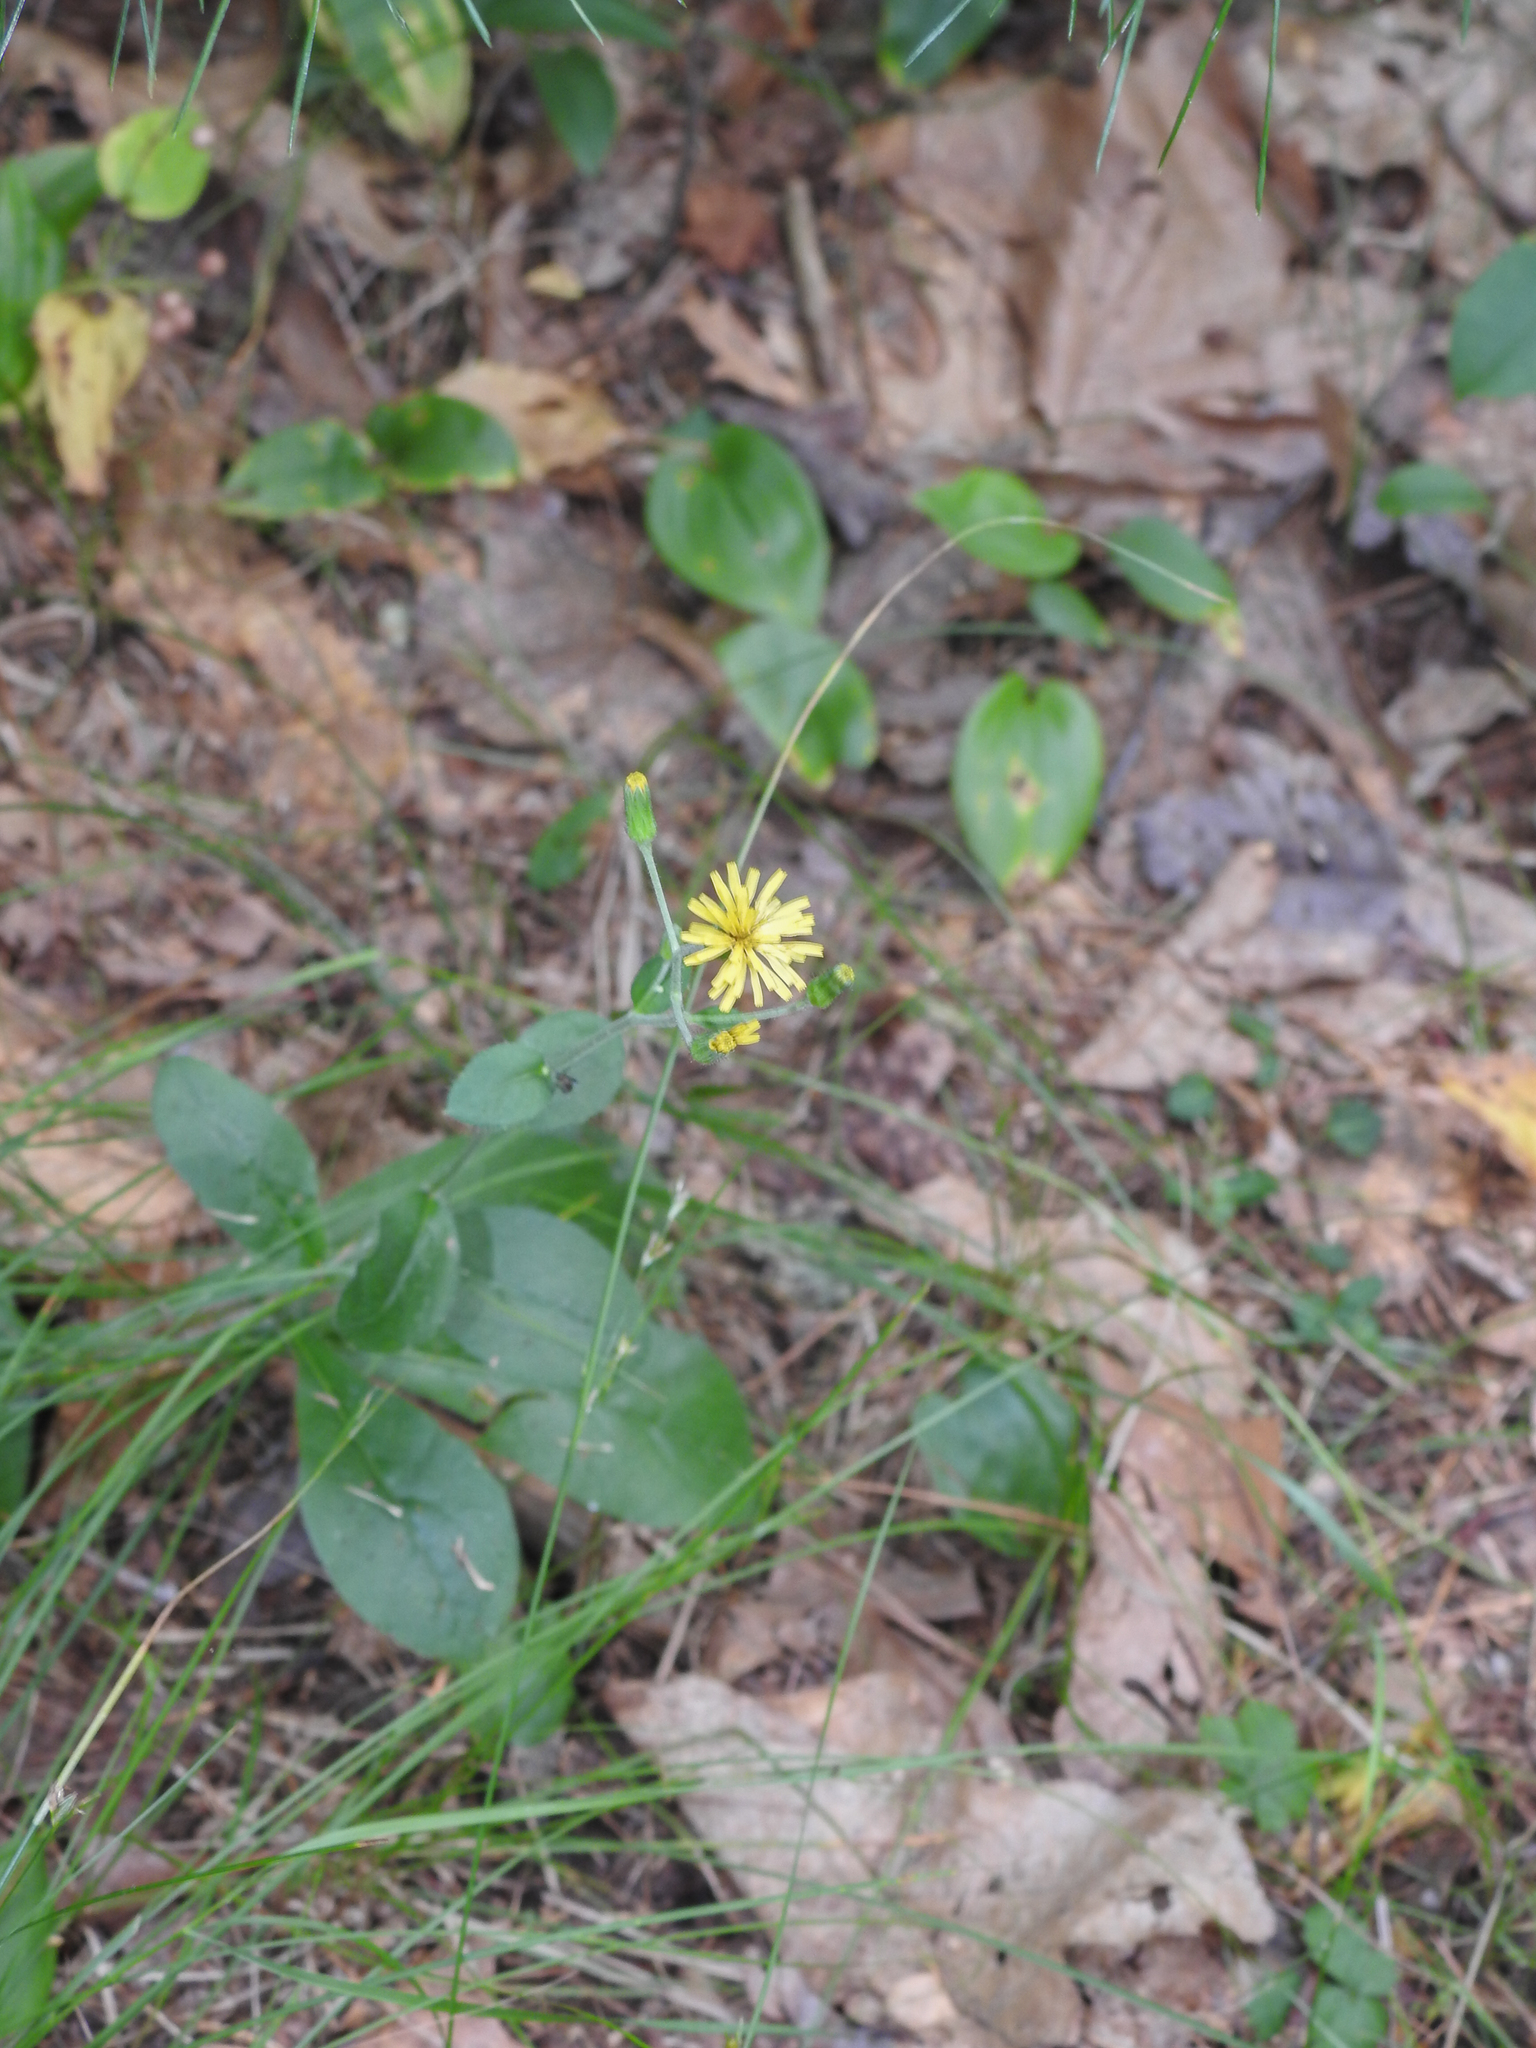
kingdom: Plantae
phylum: Tracheophyta
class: Magnoliopsida
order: Asterales
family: Asteraceae
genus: Hieracium
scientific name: Hieracium scabrum
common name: Rough hawkweed
